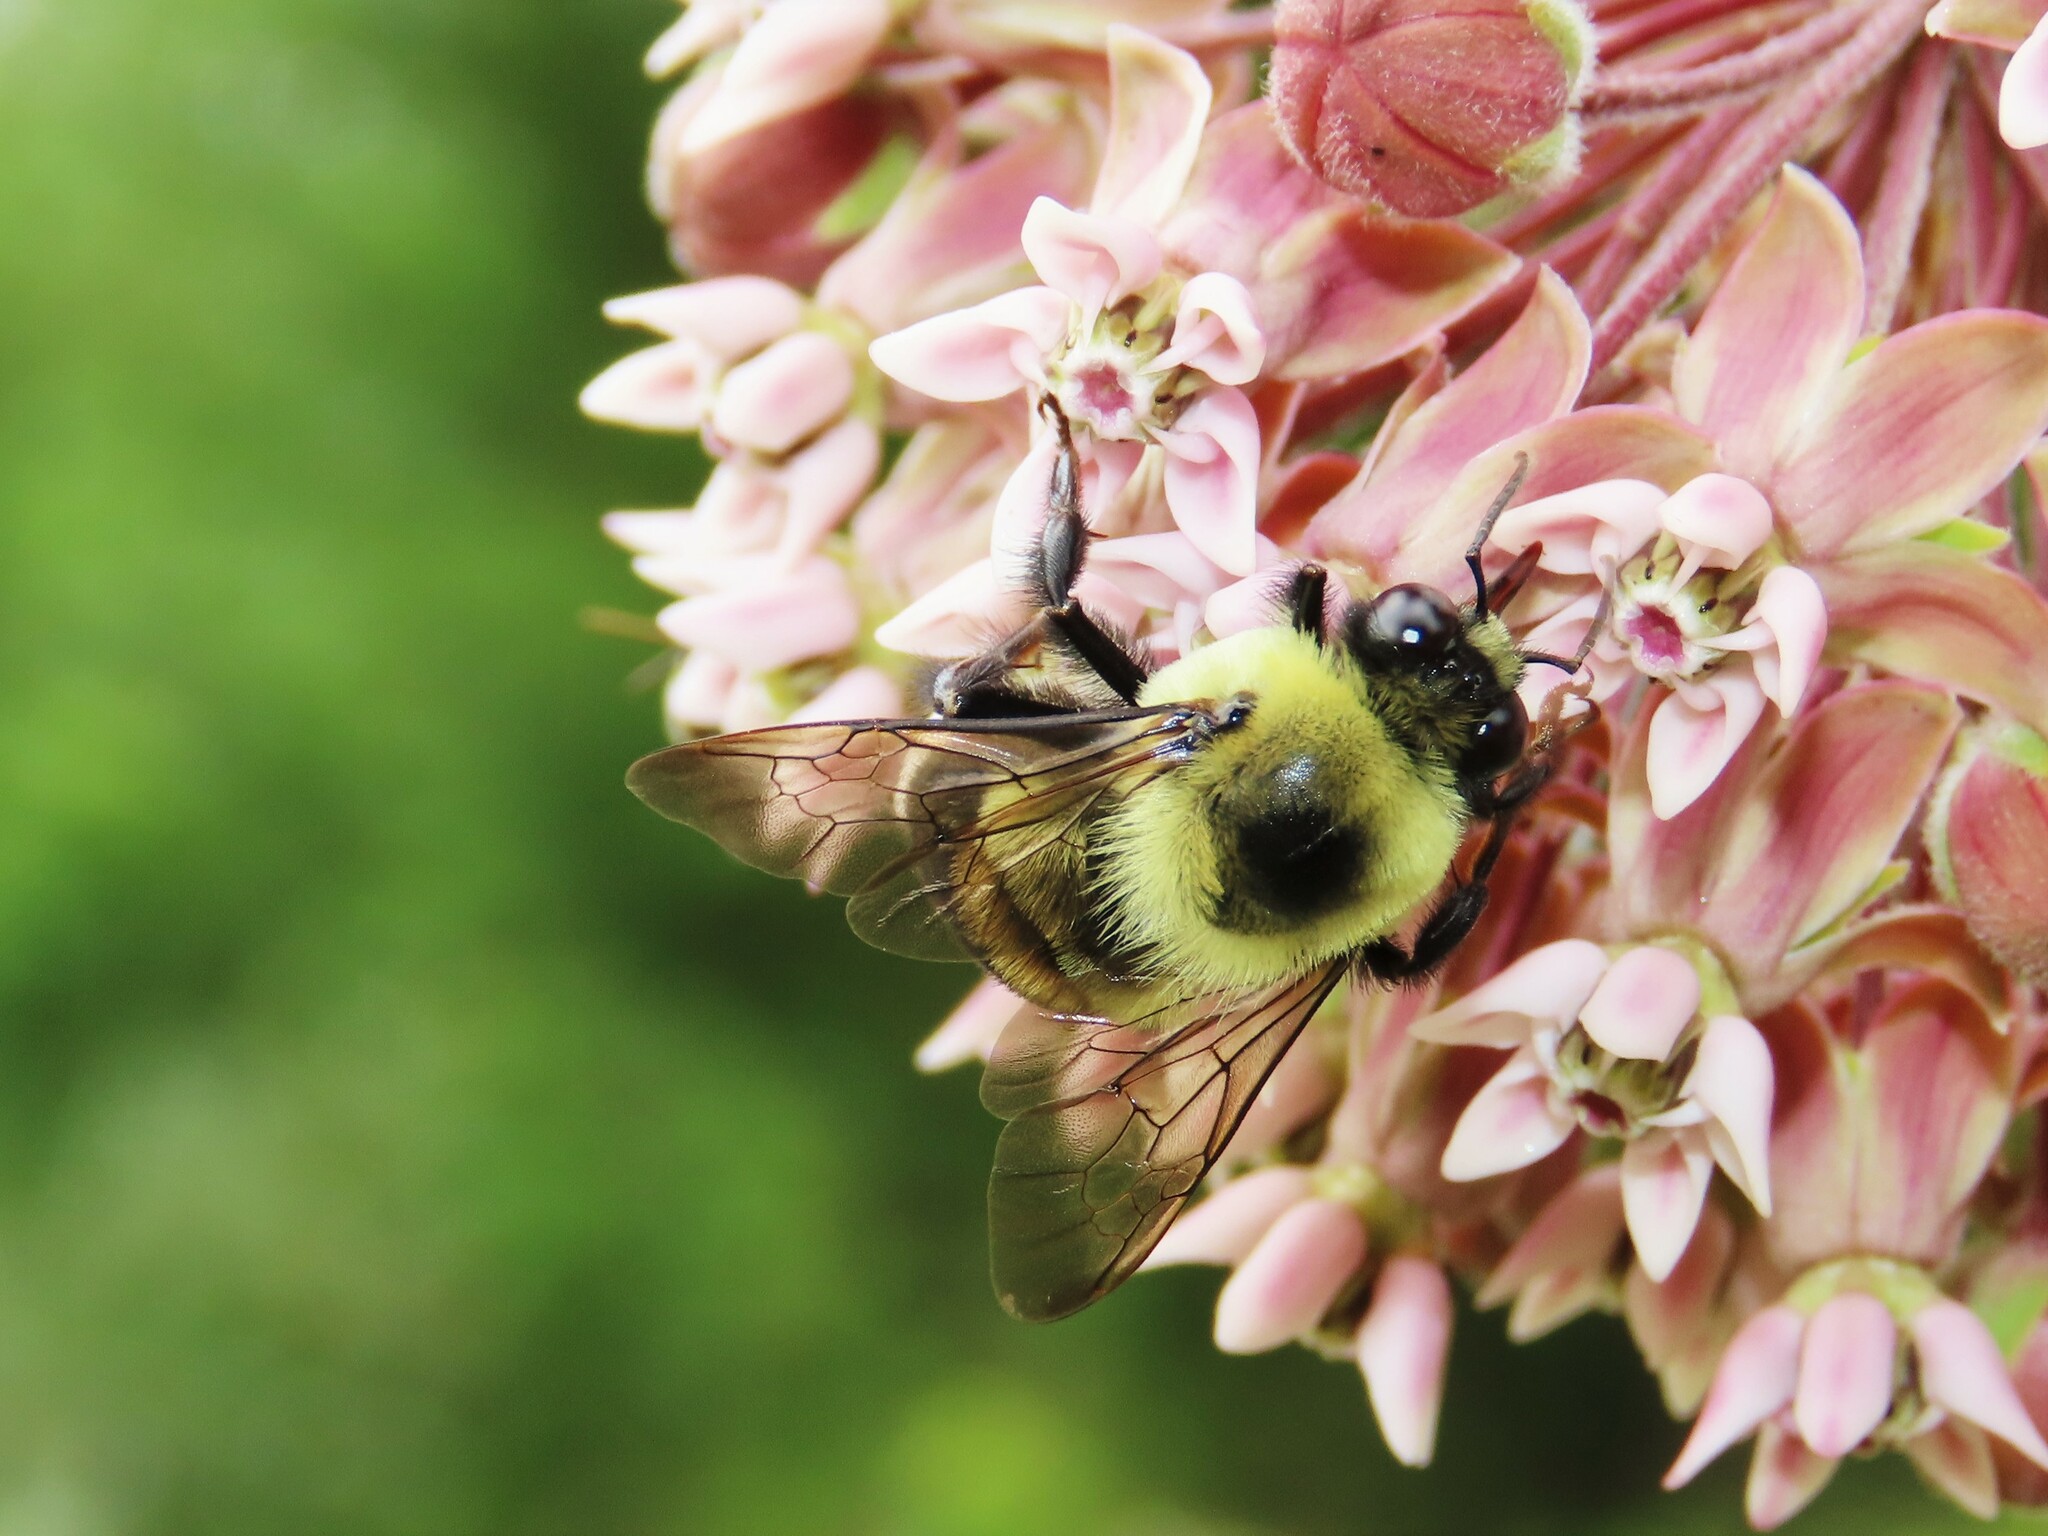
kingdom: Animalia
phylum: Arthropoda
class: Insecta
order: Hymenoptera
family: Apidae
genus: Bombus
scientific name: Bombus griseocollis
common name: Brown-belted bumble bee
